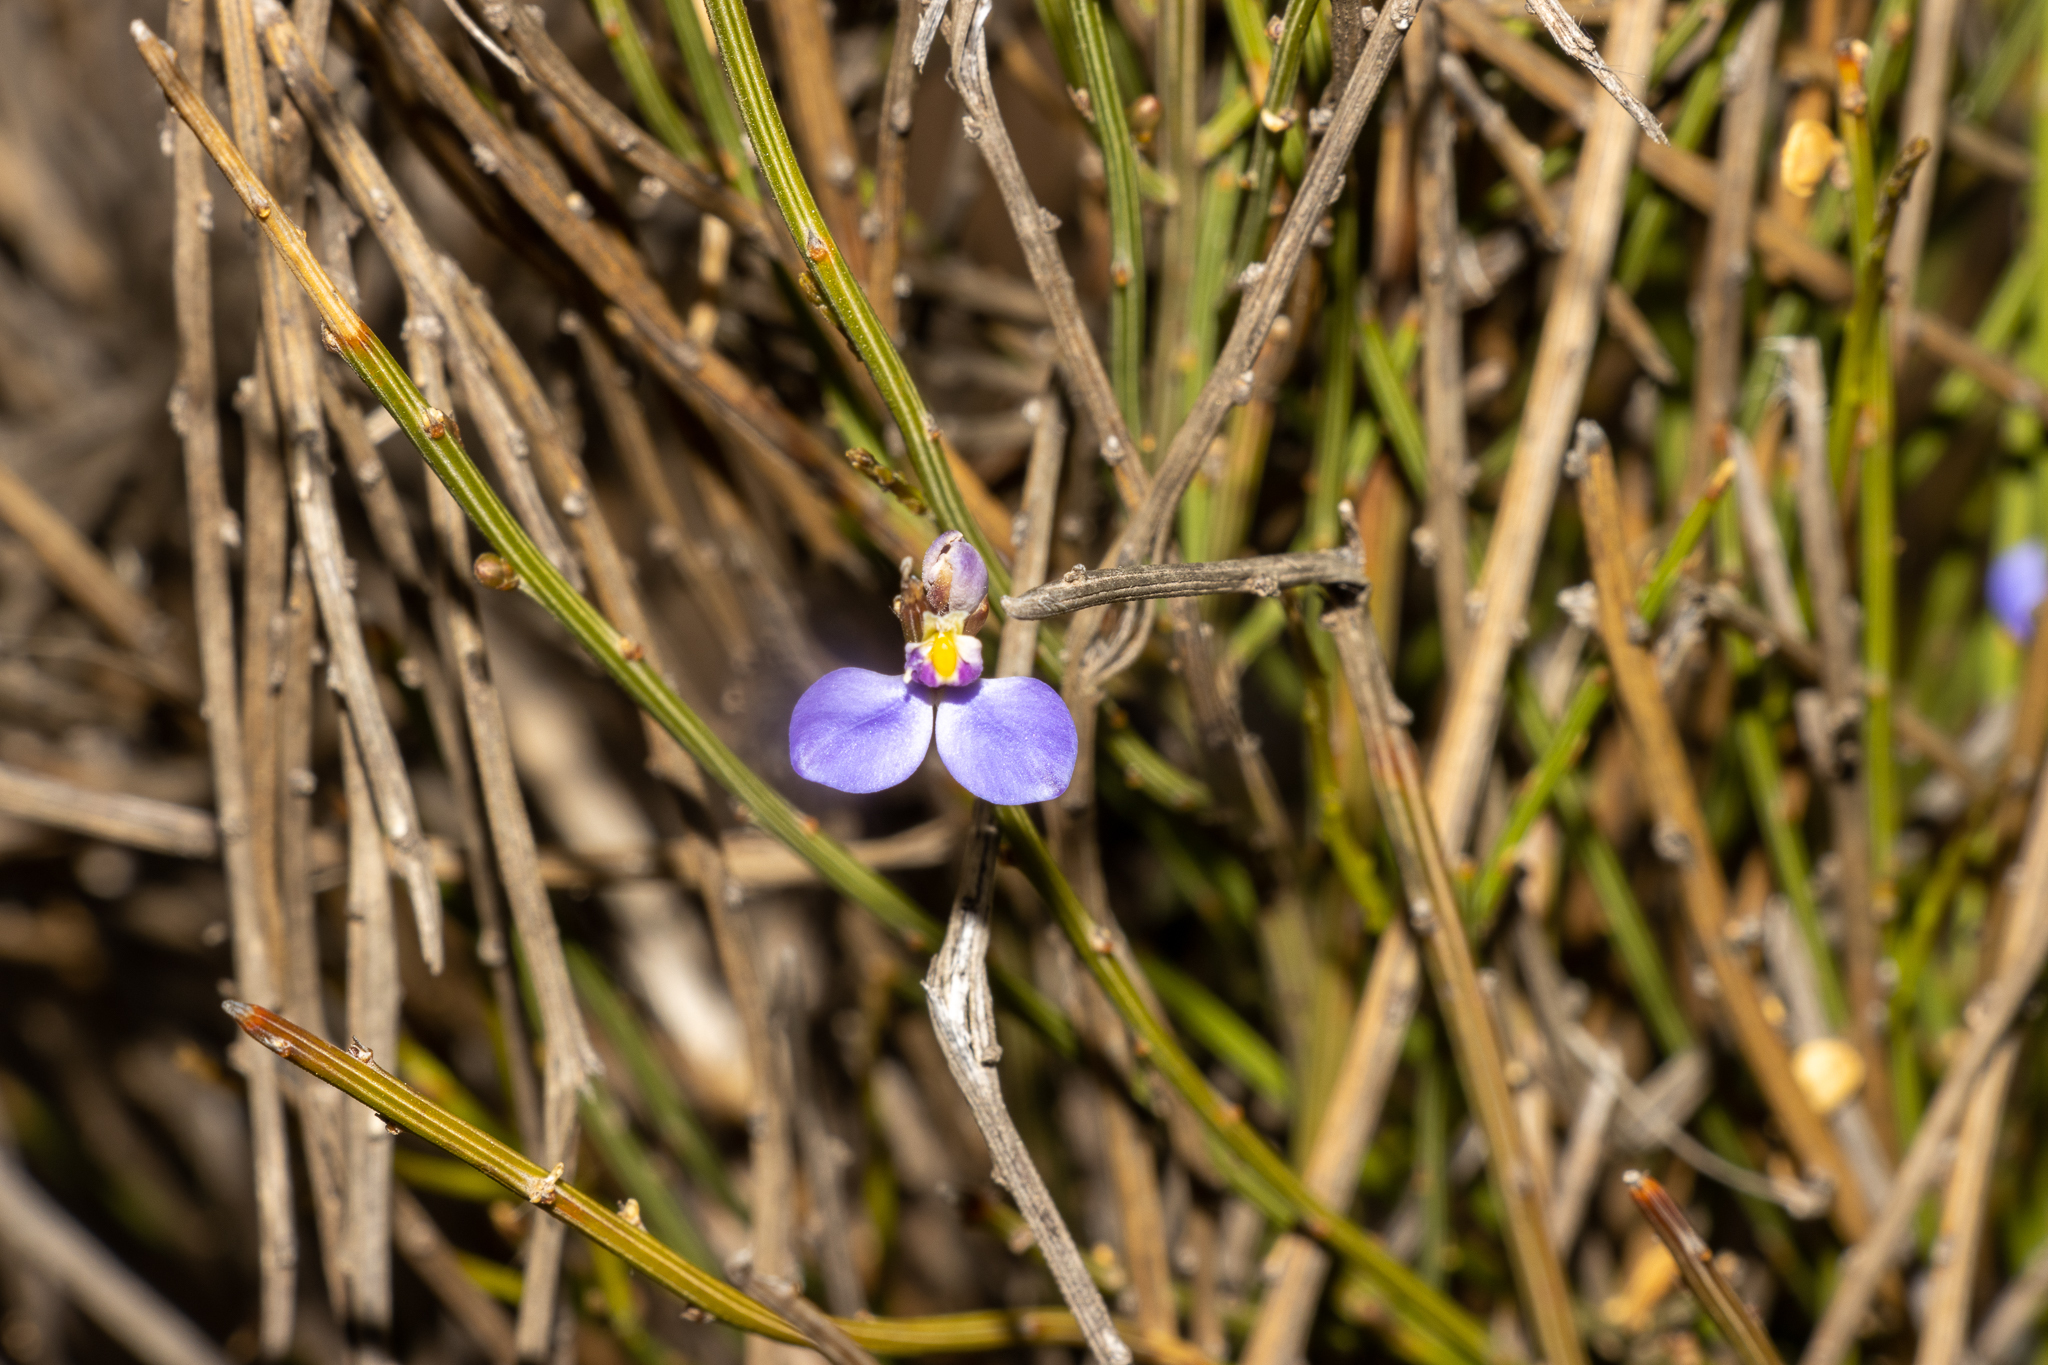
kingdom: Plantae
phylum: Tracheophyta
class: Magnoliopsida
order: Fabales
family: Polygalaceae
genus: Comesperma
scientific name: Comesperma scoparium
